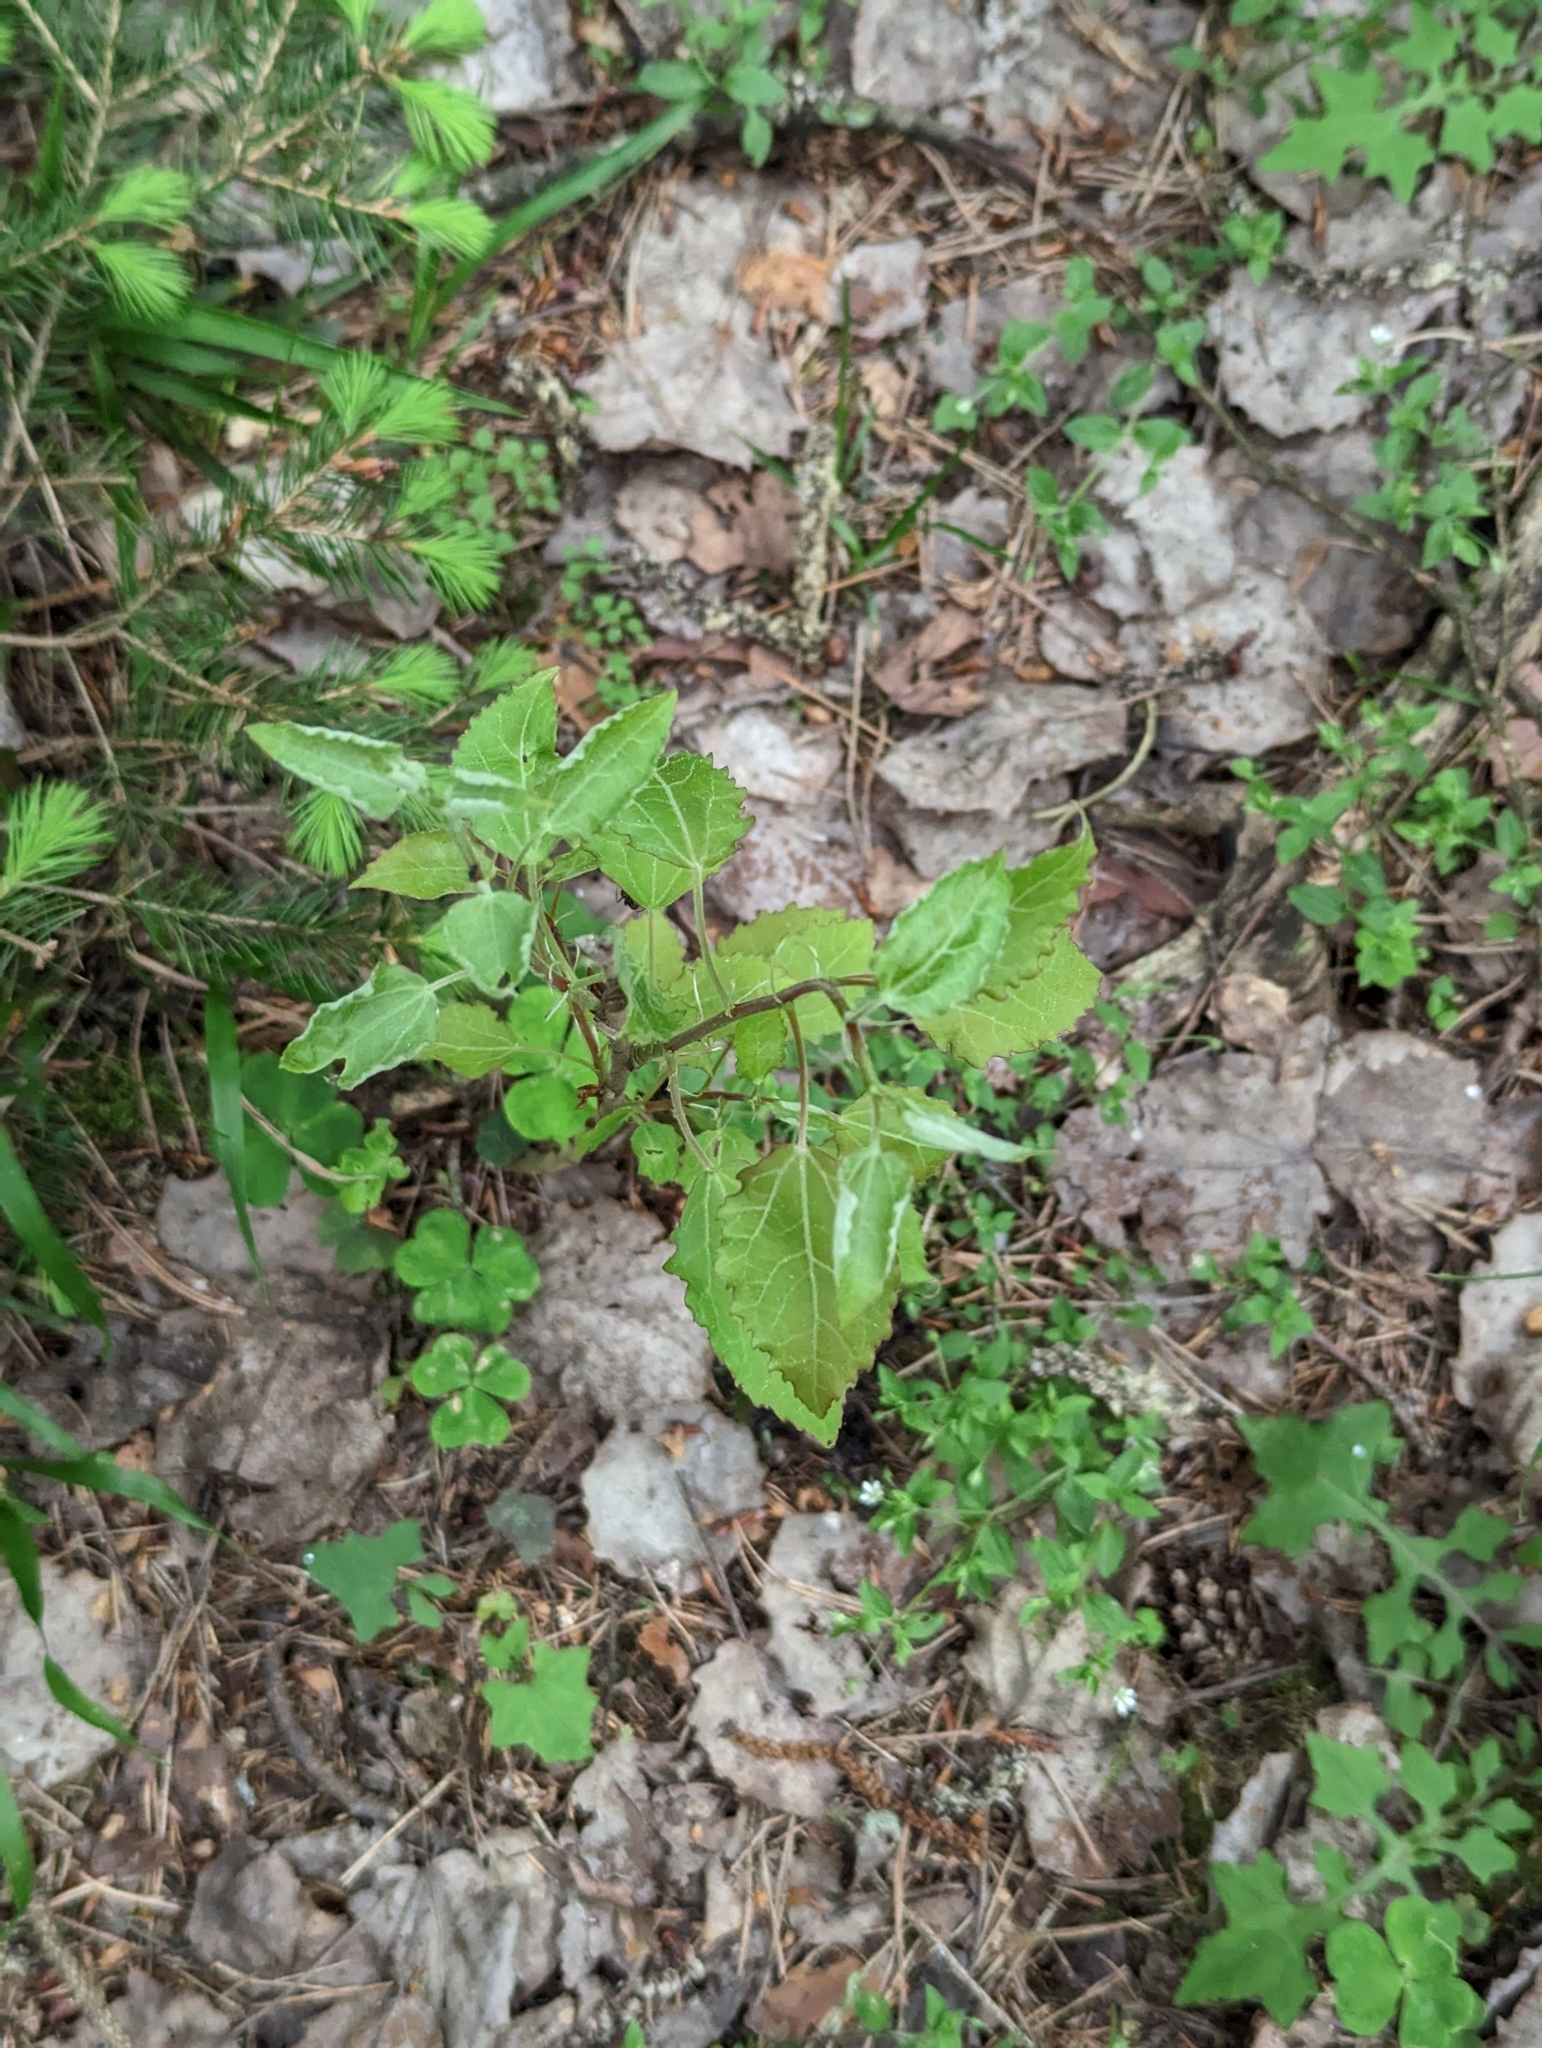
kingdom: Plantae
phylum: Tracheophyta
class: Magnoliopsida
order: Malpighiales
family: Salicaceae
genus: Populus
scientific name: Populus tremula
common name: European aspen
